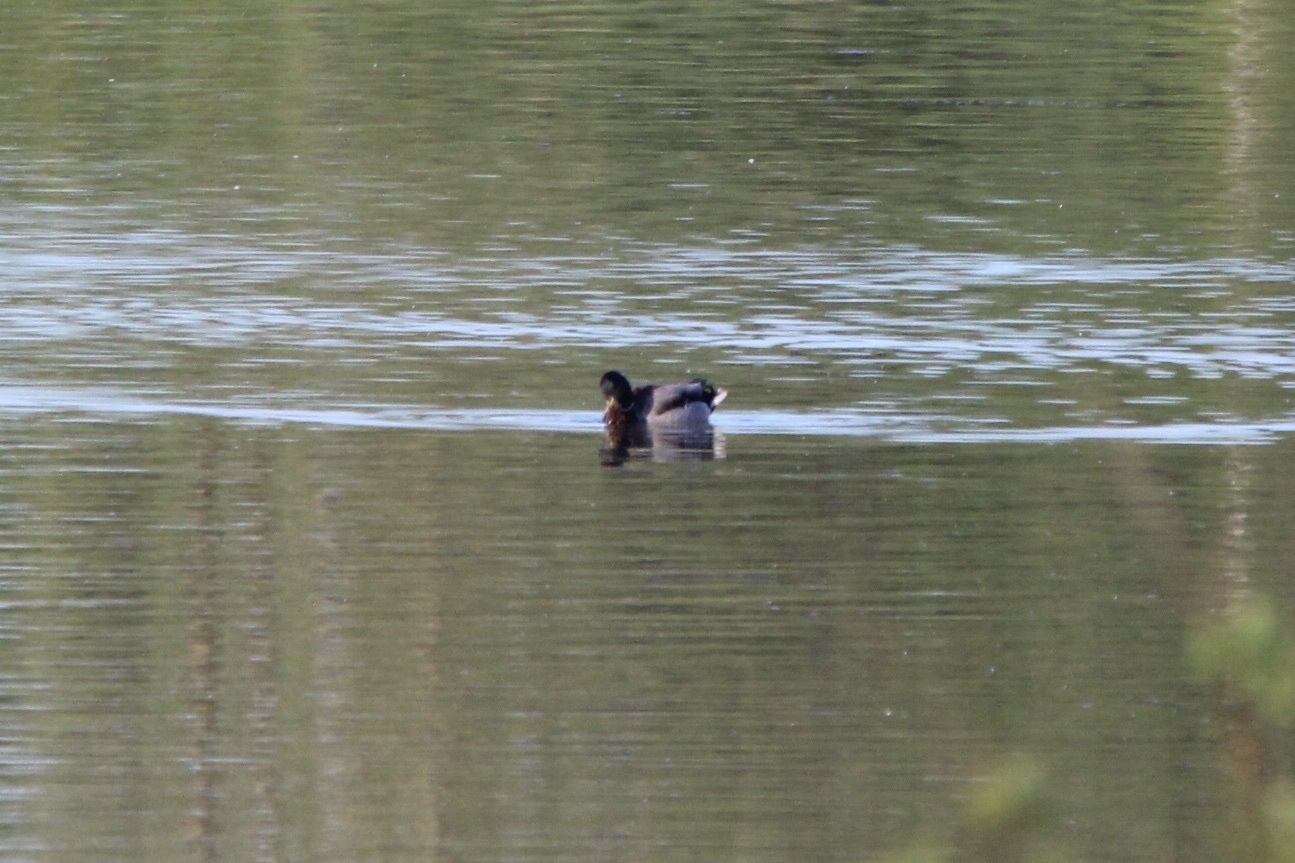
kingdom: Animalia
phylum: Chordata
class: Aves
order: Anseriformes
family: Anatidae
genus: Anas
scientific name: Anas platyrhynchos
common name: Mallard
